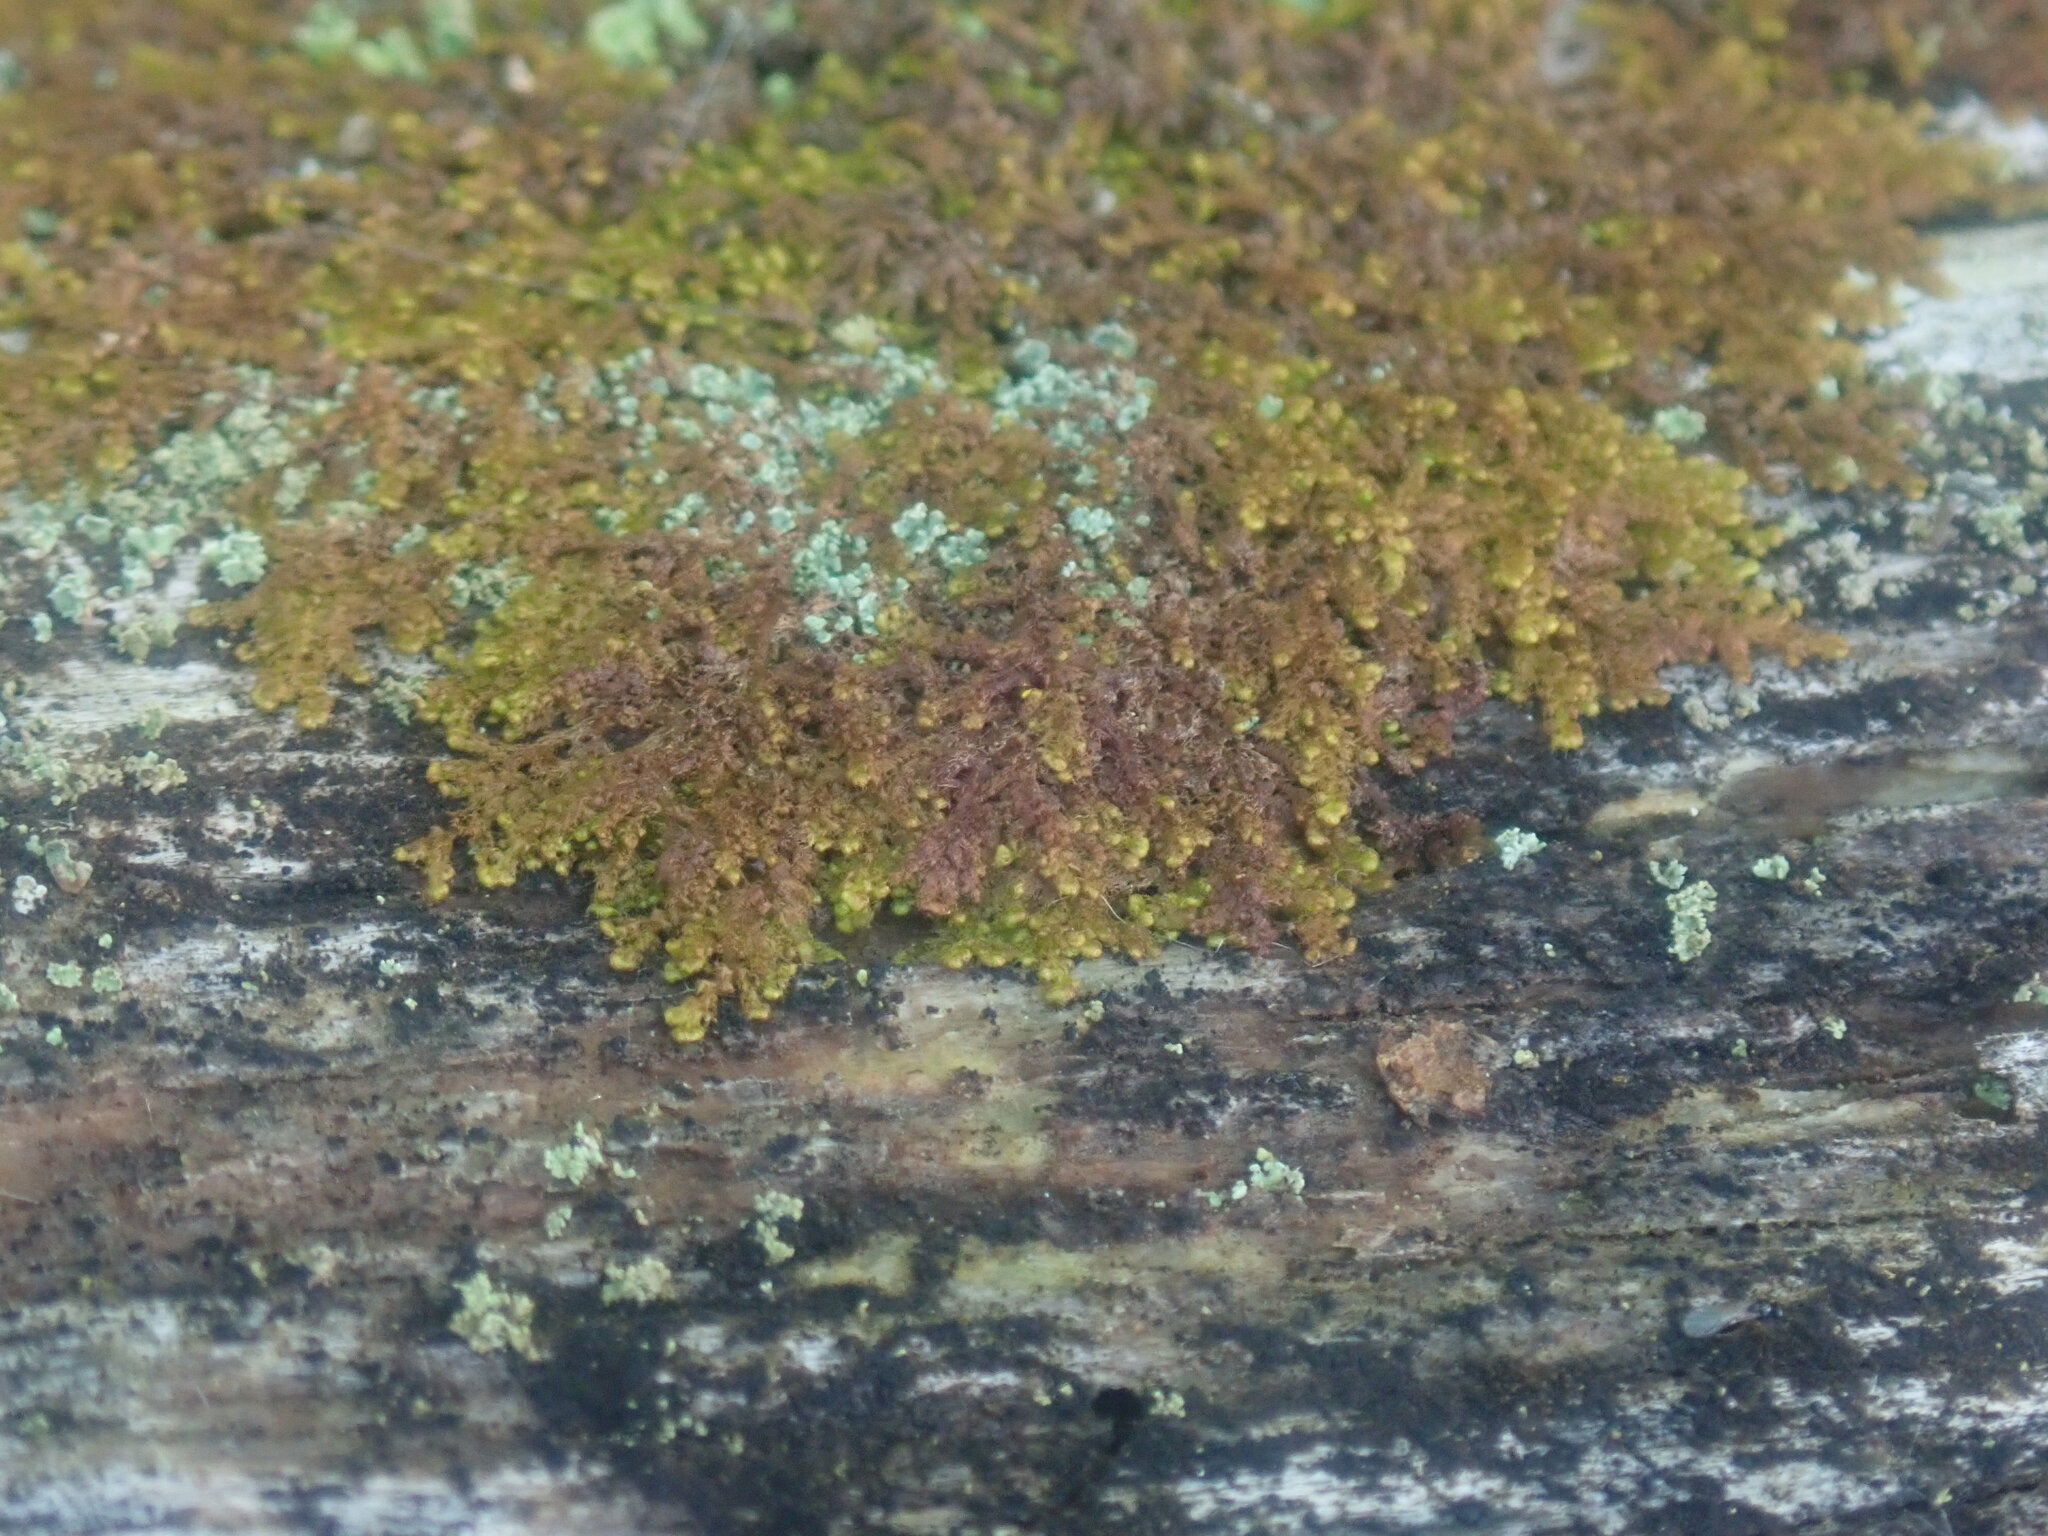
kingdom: Plantae
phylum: Marchantiophyta
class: Jungermanniopsida
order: Ptilidiales
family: Ptilidiaceae
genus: Ptilidium
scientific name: Ptilidium pulcherrimum
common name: Tree fringewort
